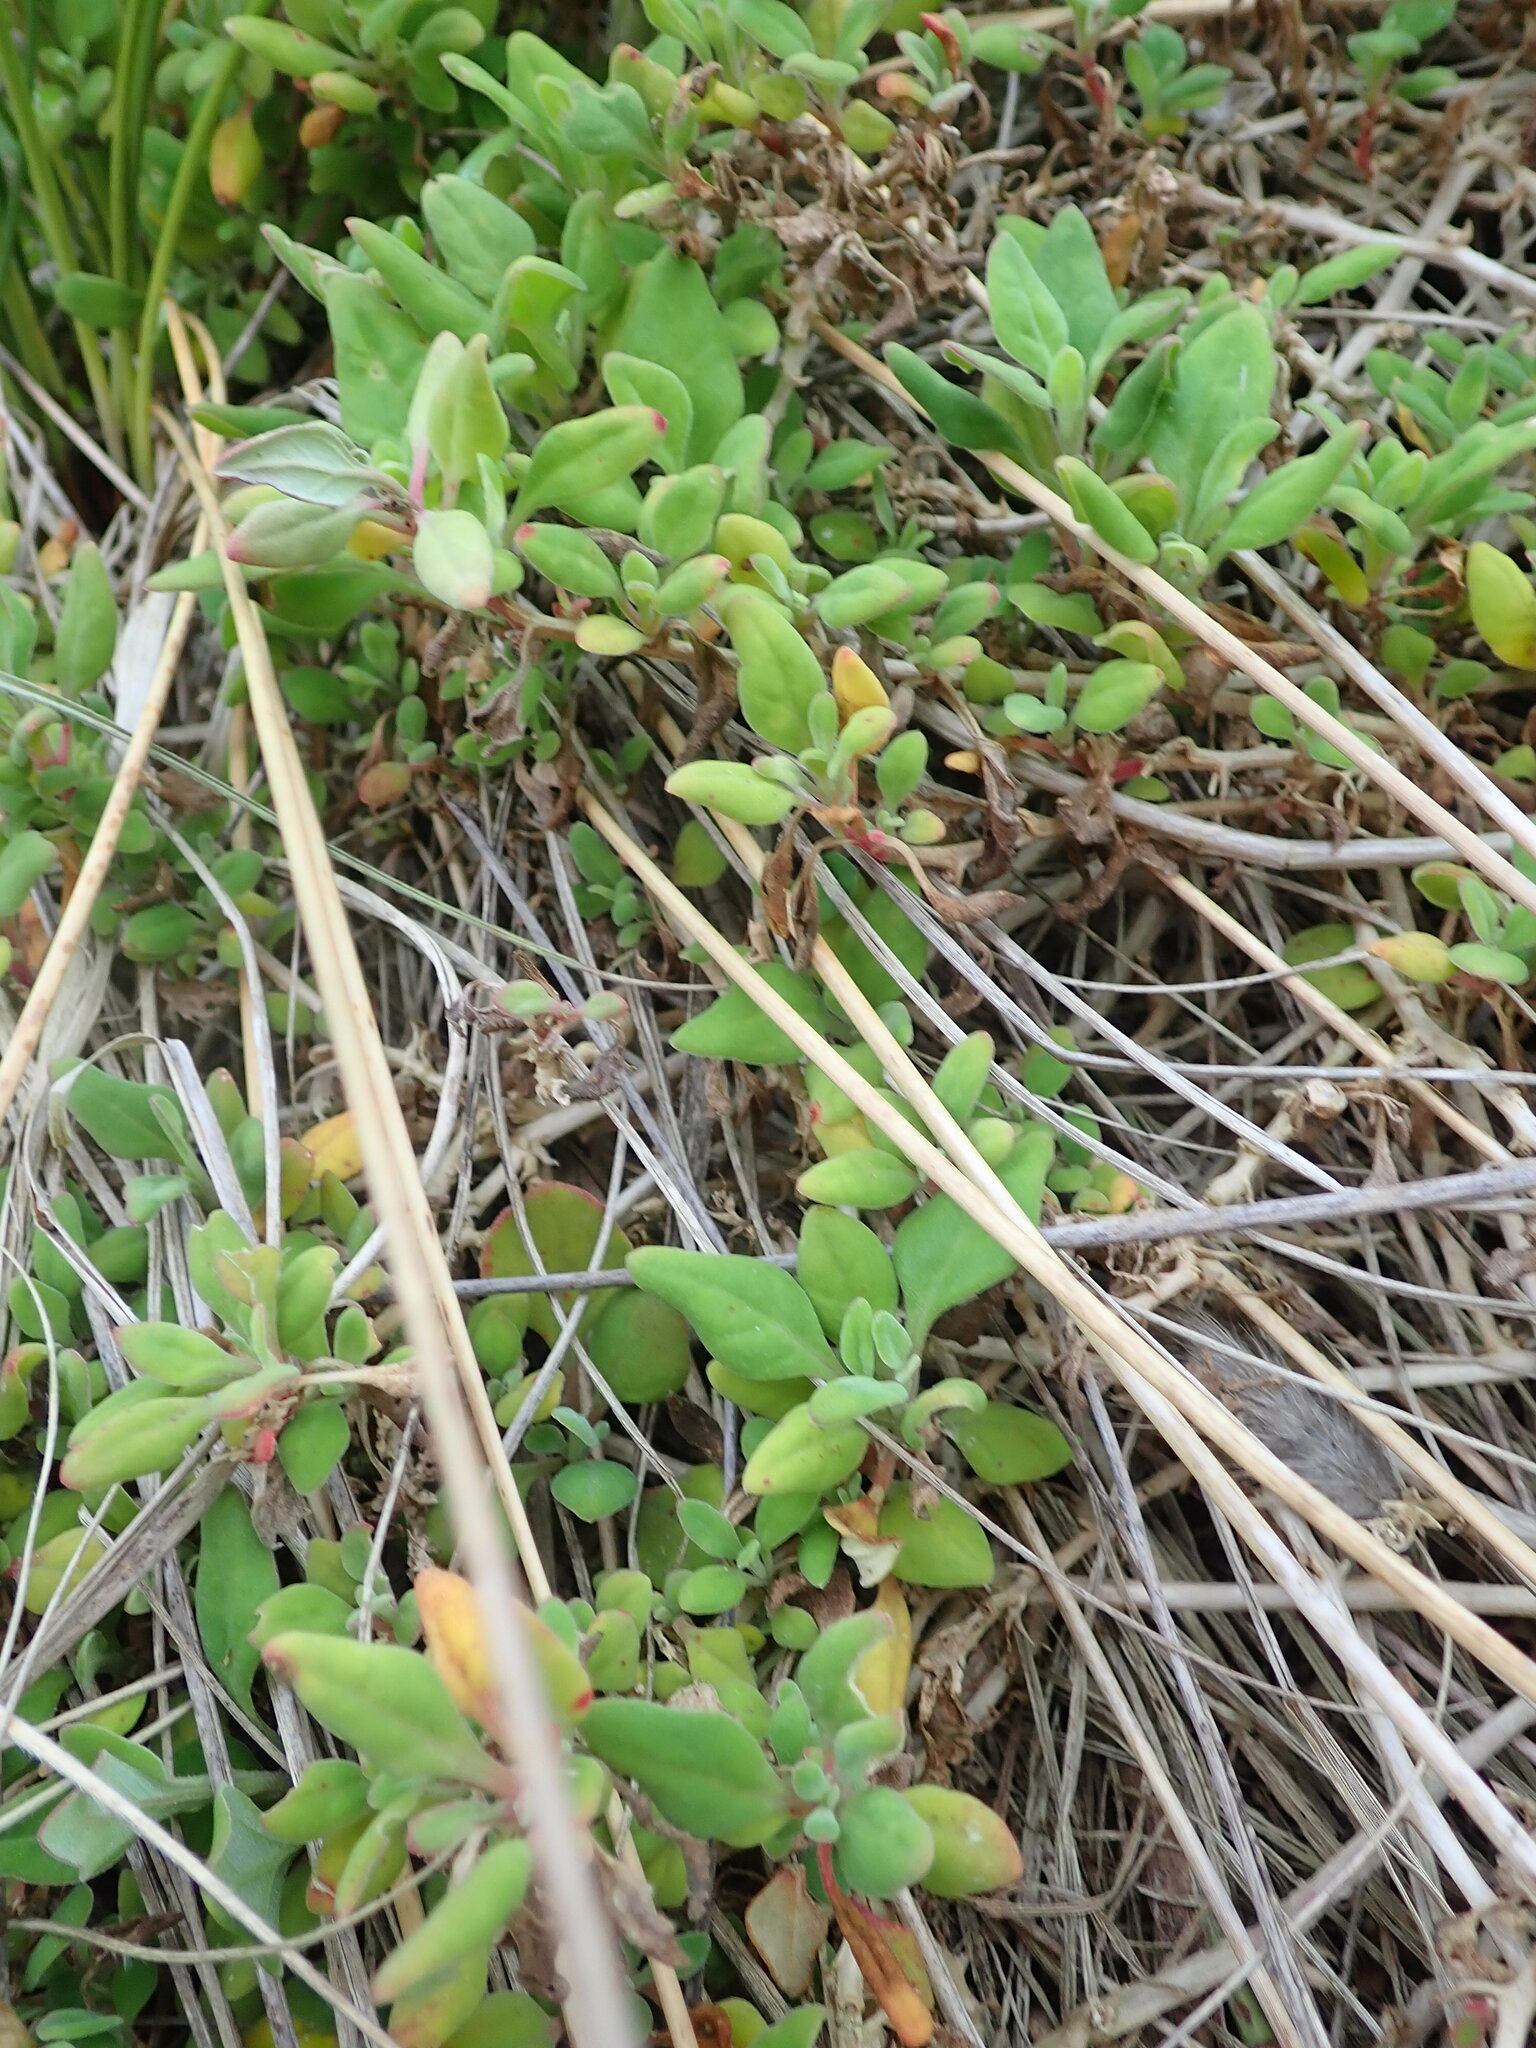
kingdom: Plantae
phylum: Tracheophyta
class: Magnoliopsida
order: Caryophyllales
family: Aizoaceae
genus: Tetragonia
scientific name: Tetragonia implexicoma
